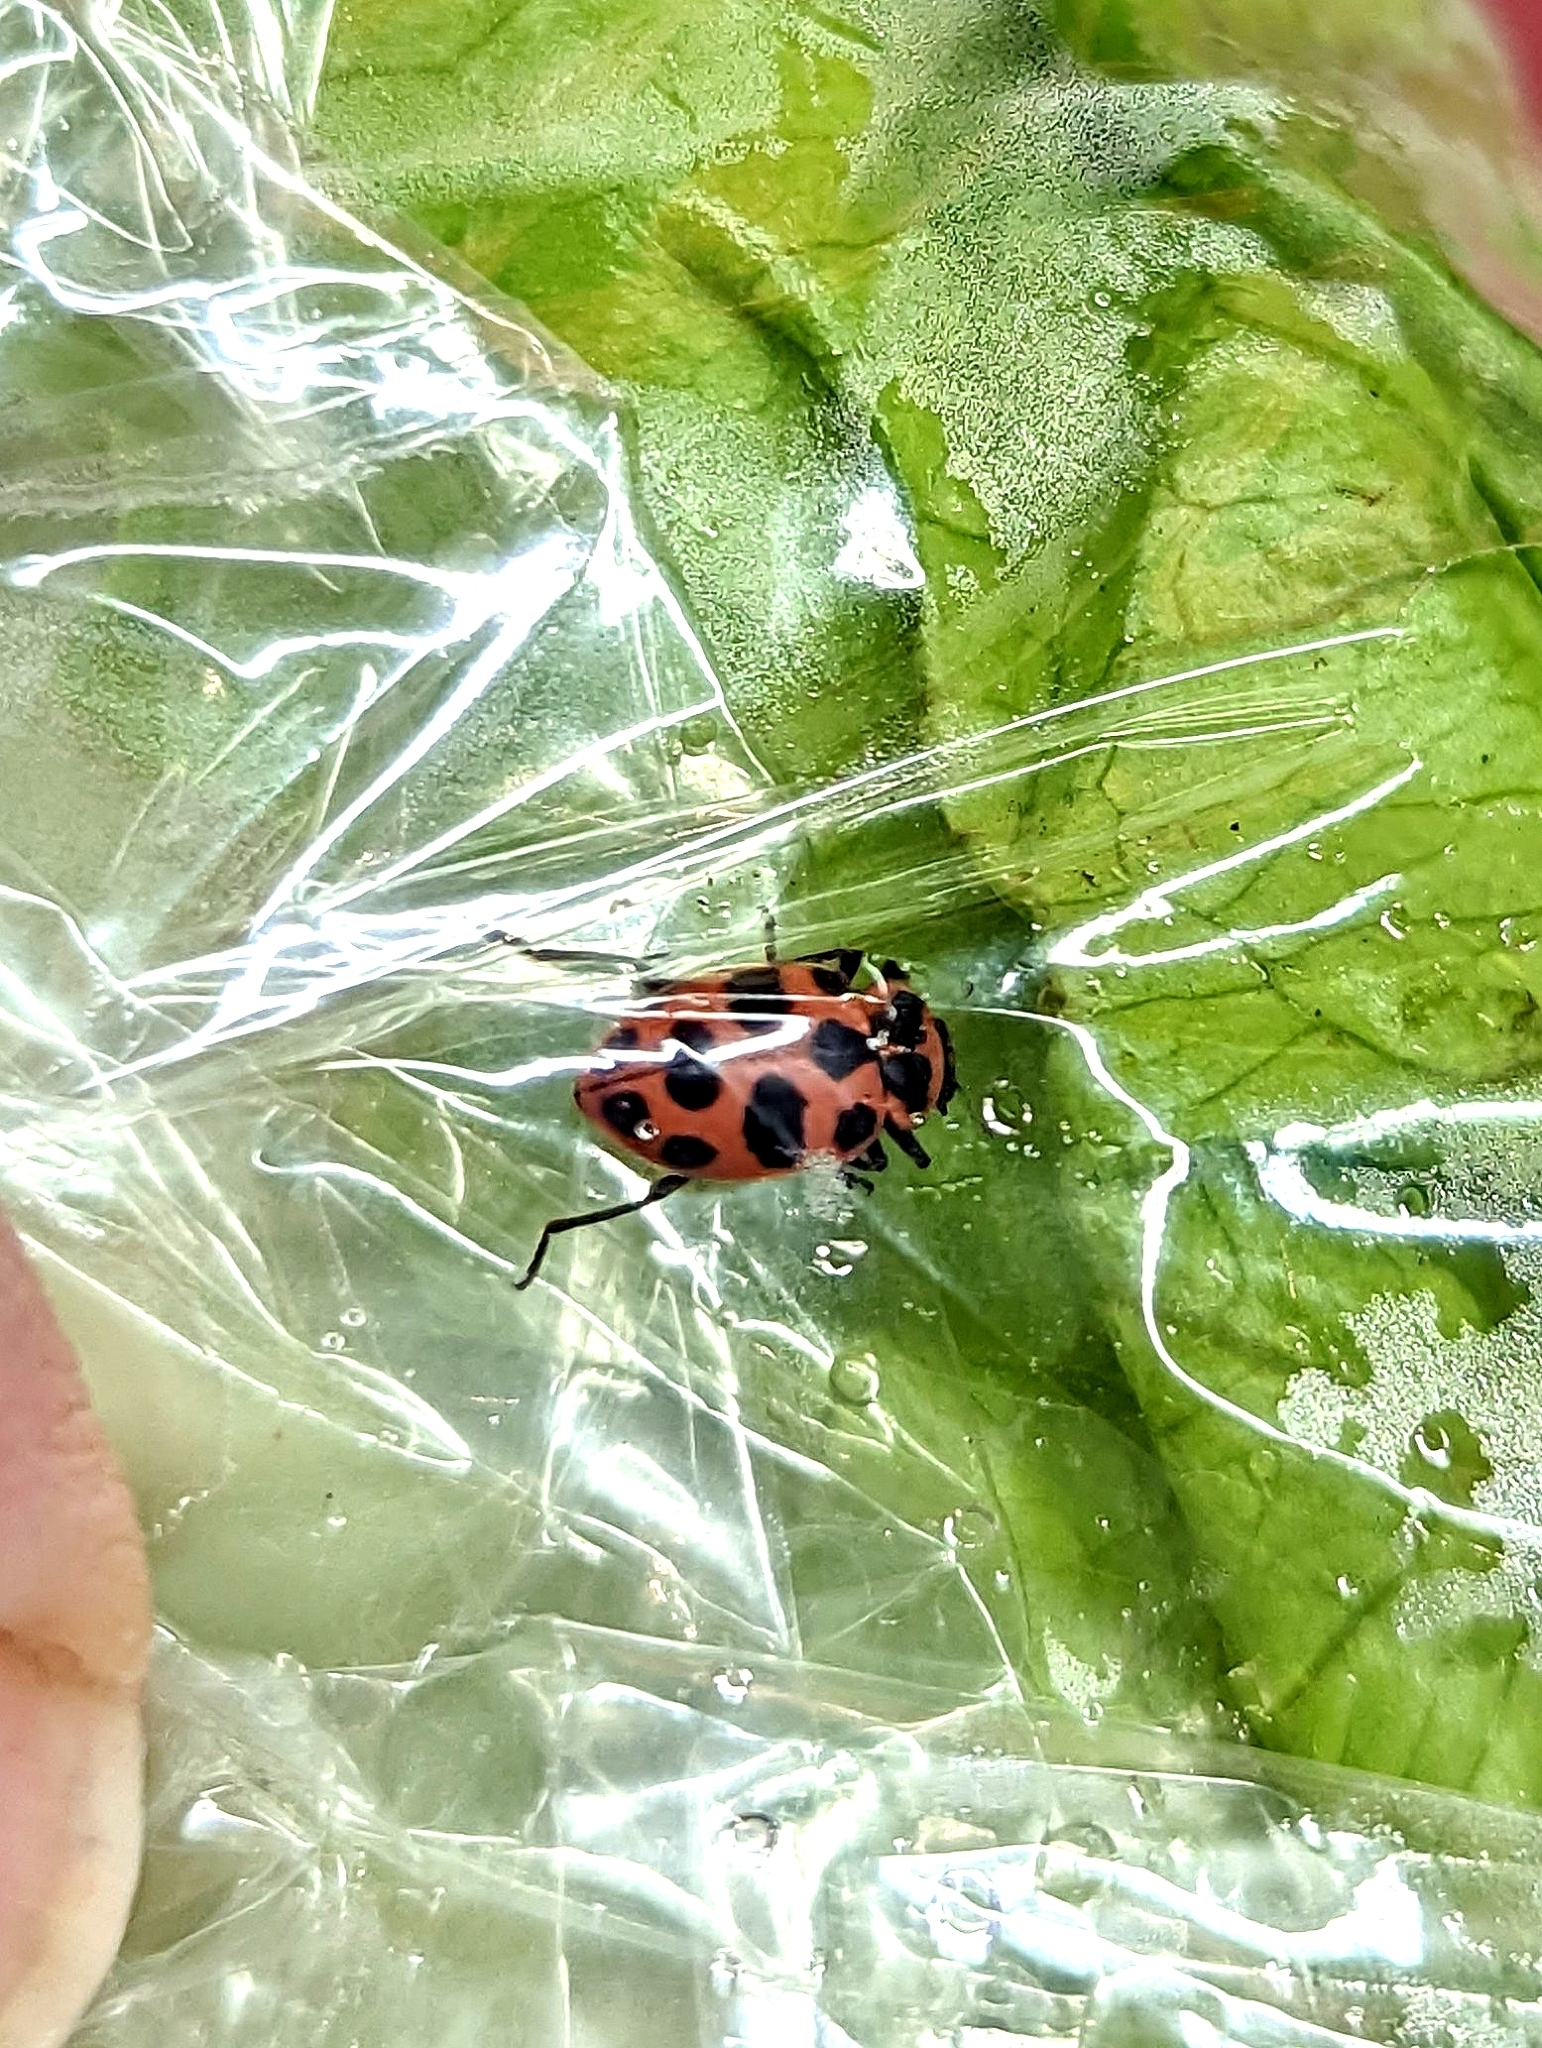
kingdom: Animalia
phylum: Arthropoda
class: Insecta
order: Coleoptera
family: Coccinellidae
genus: Coleomegilla
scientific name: Coleomegilla maculata
